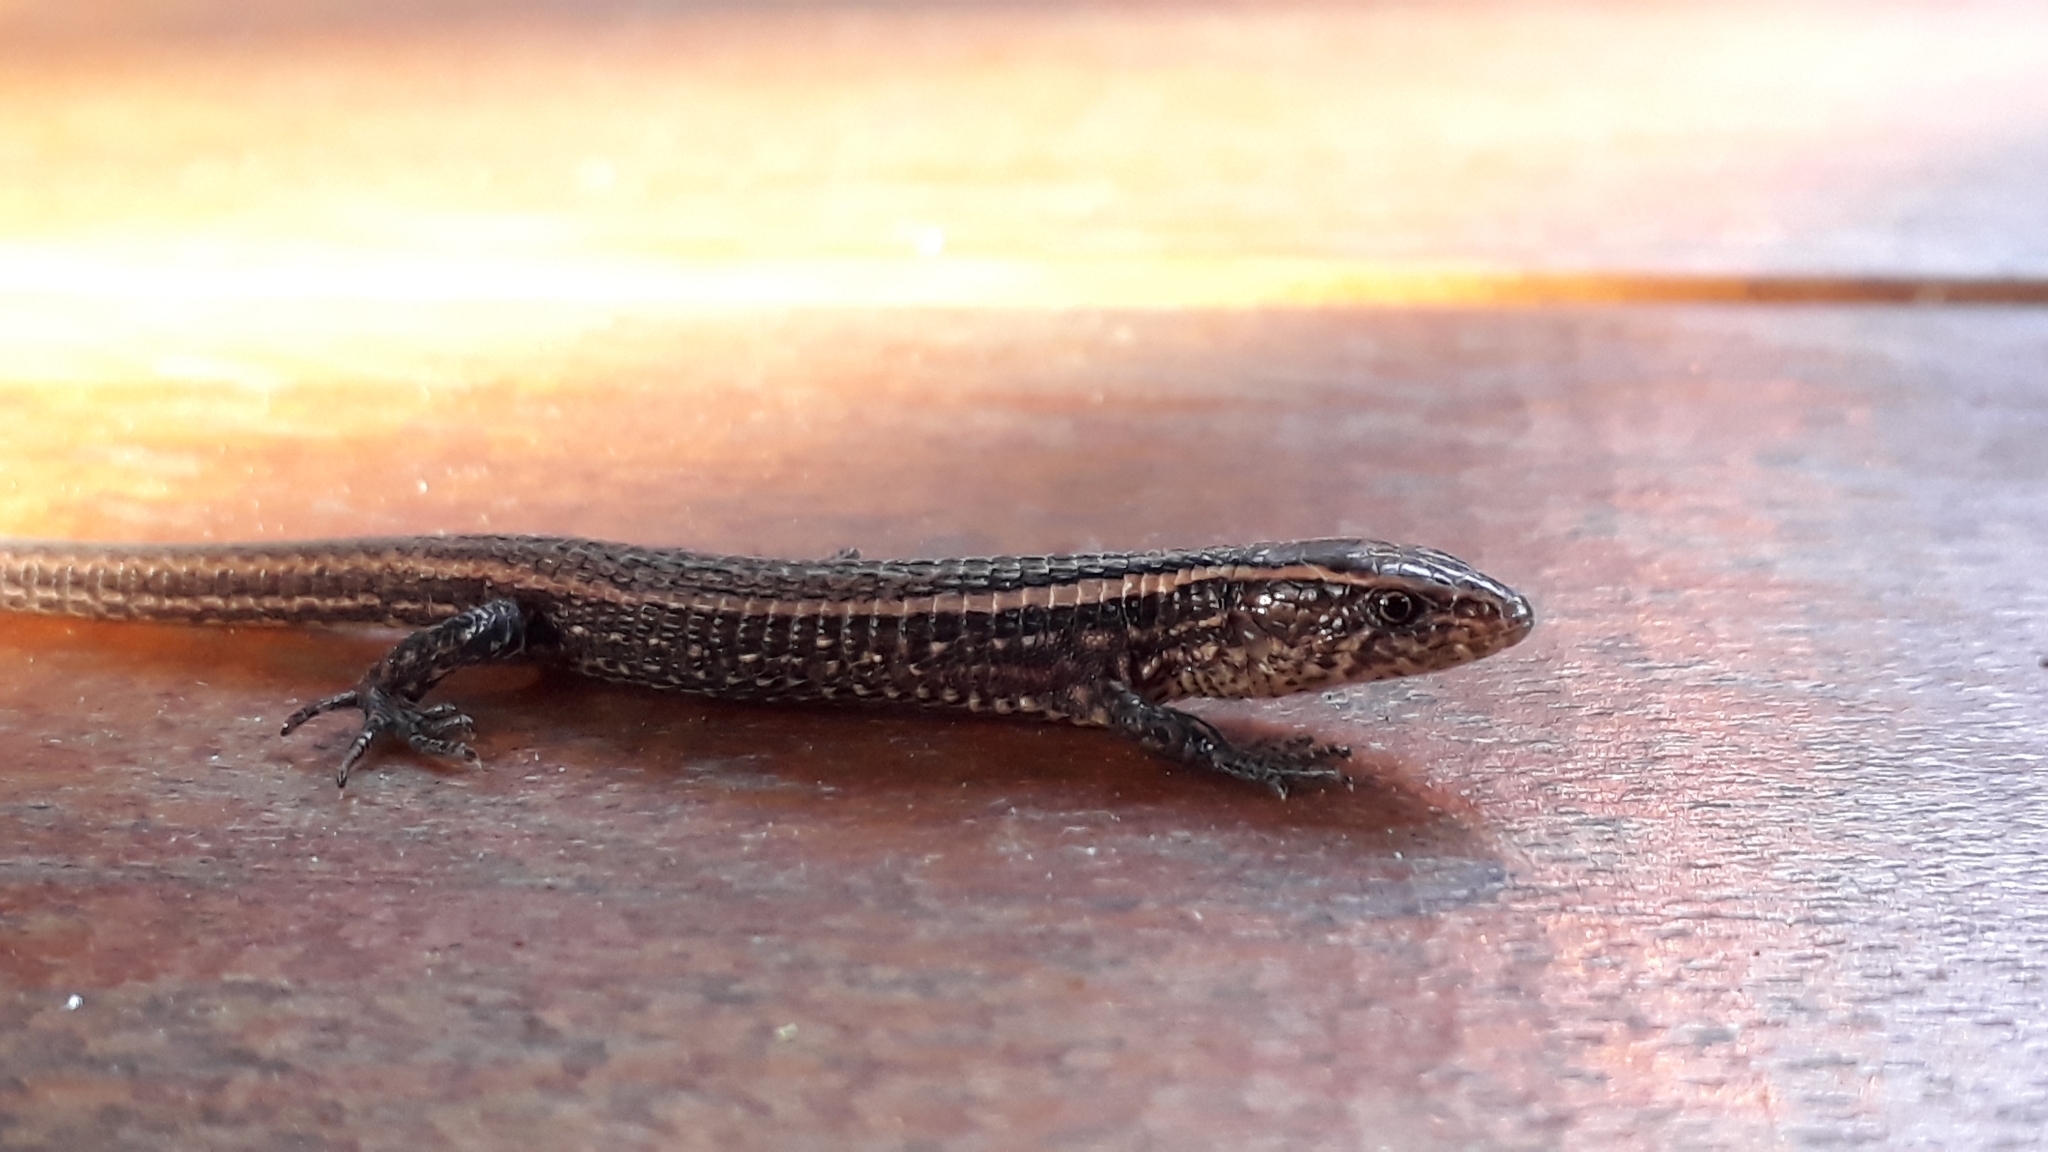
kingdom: Animalia
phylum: Chordata
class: Squamata
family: Gymnophthalmidae
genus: Riama
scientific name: Riama striata
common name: Striped lightbulb lizard
